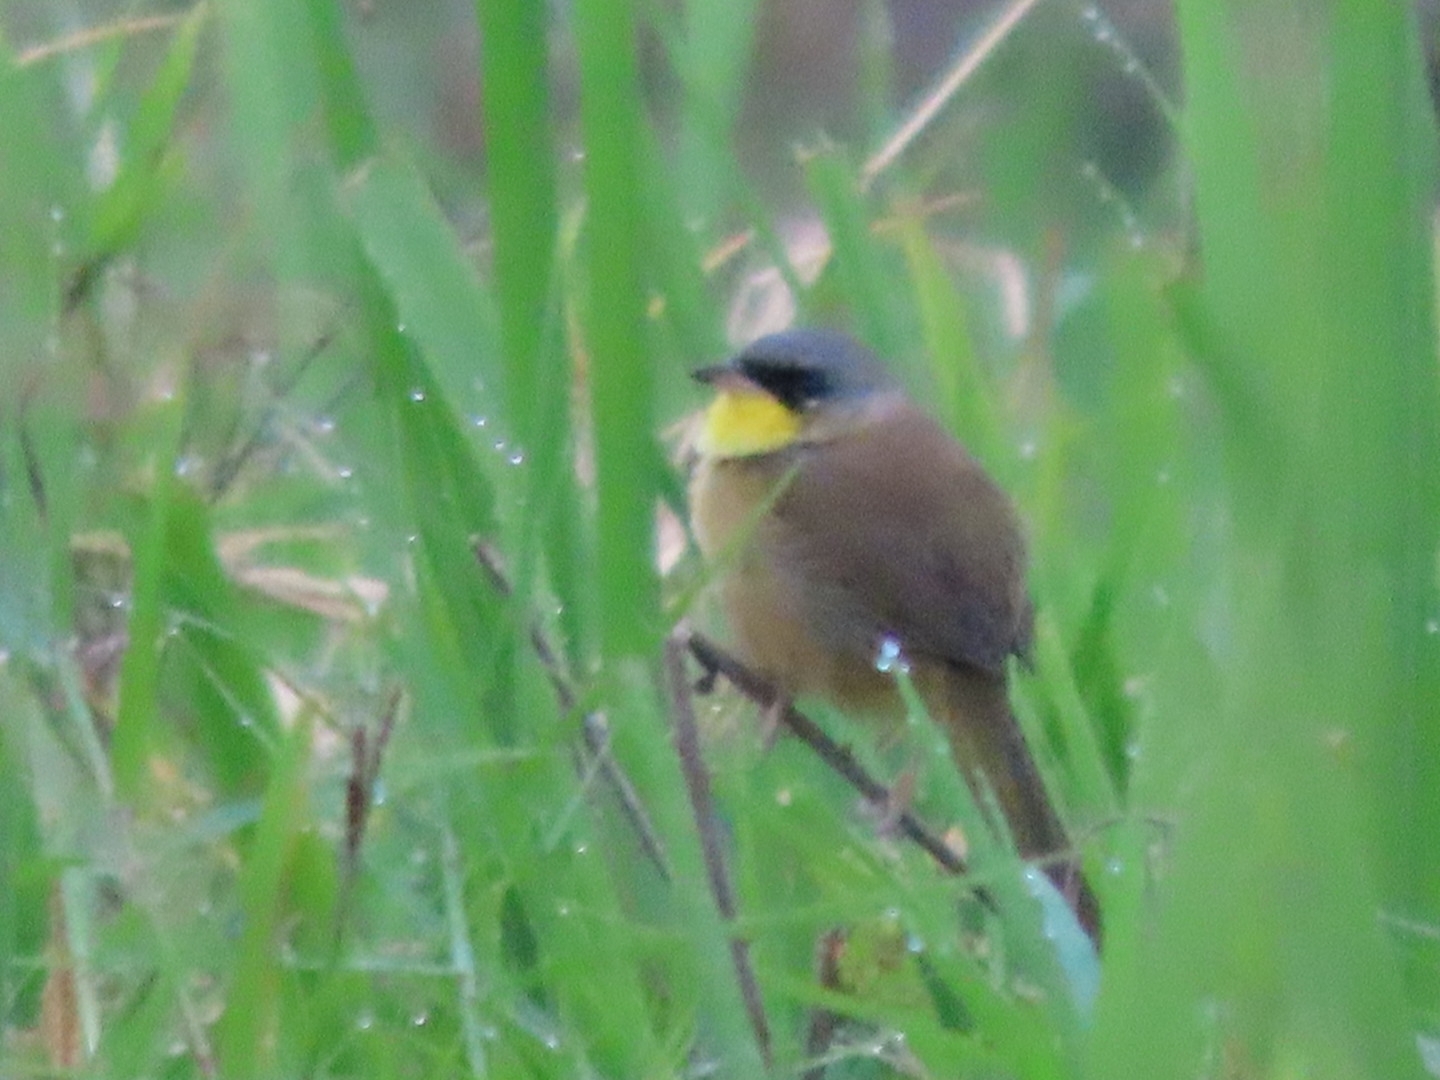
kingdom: Animalia
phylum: Chordata
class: Aves
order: Passeriformes
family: Parulidae
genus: Geothlypis
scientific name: Geothlypis poliocephala
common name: Gray-crowned yellowthroat
